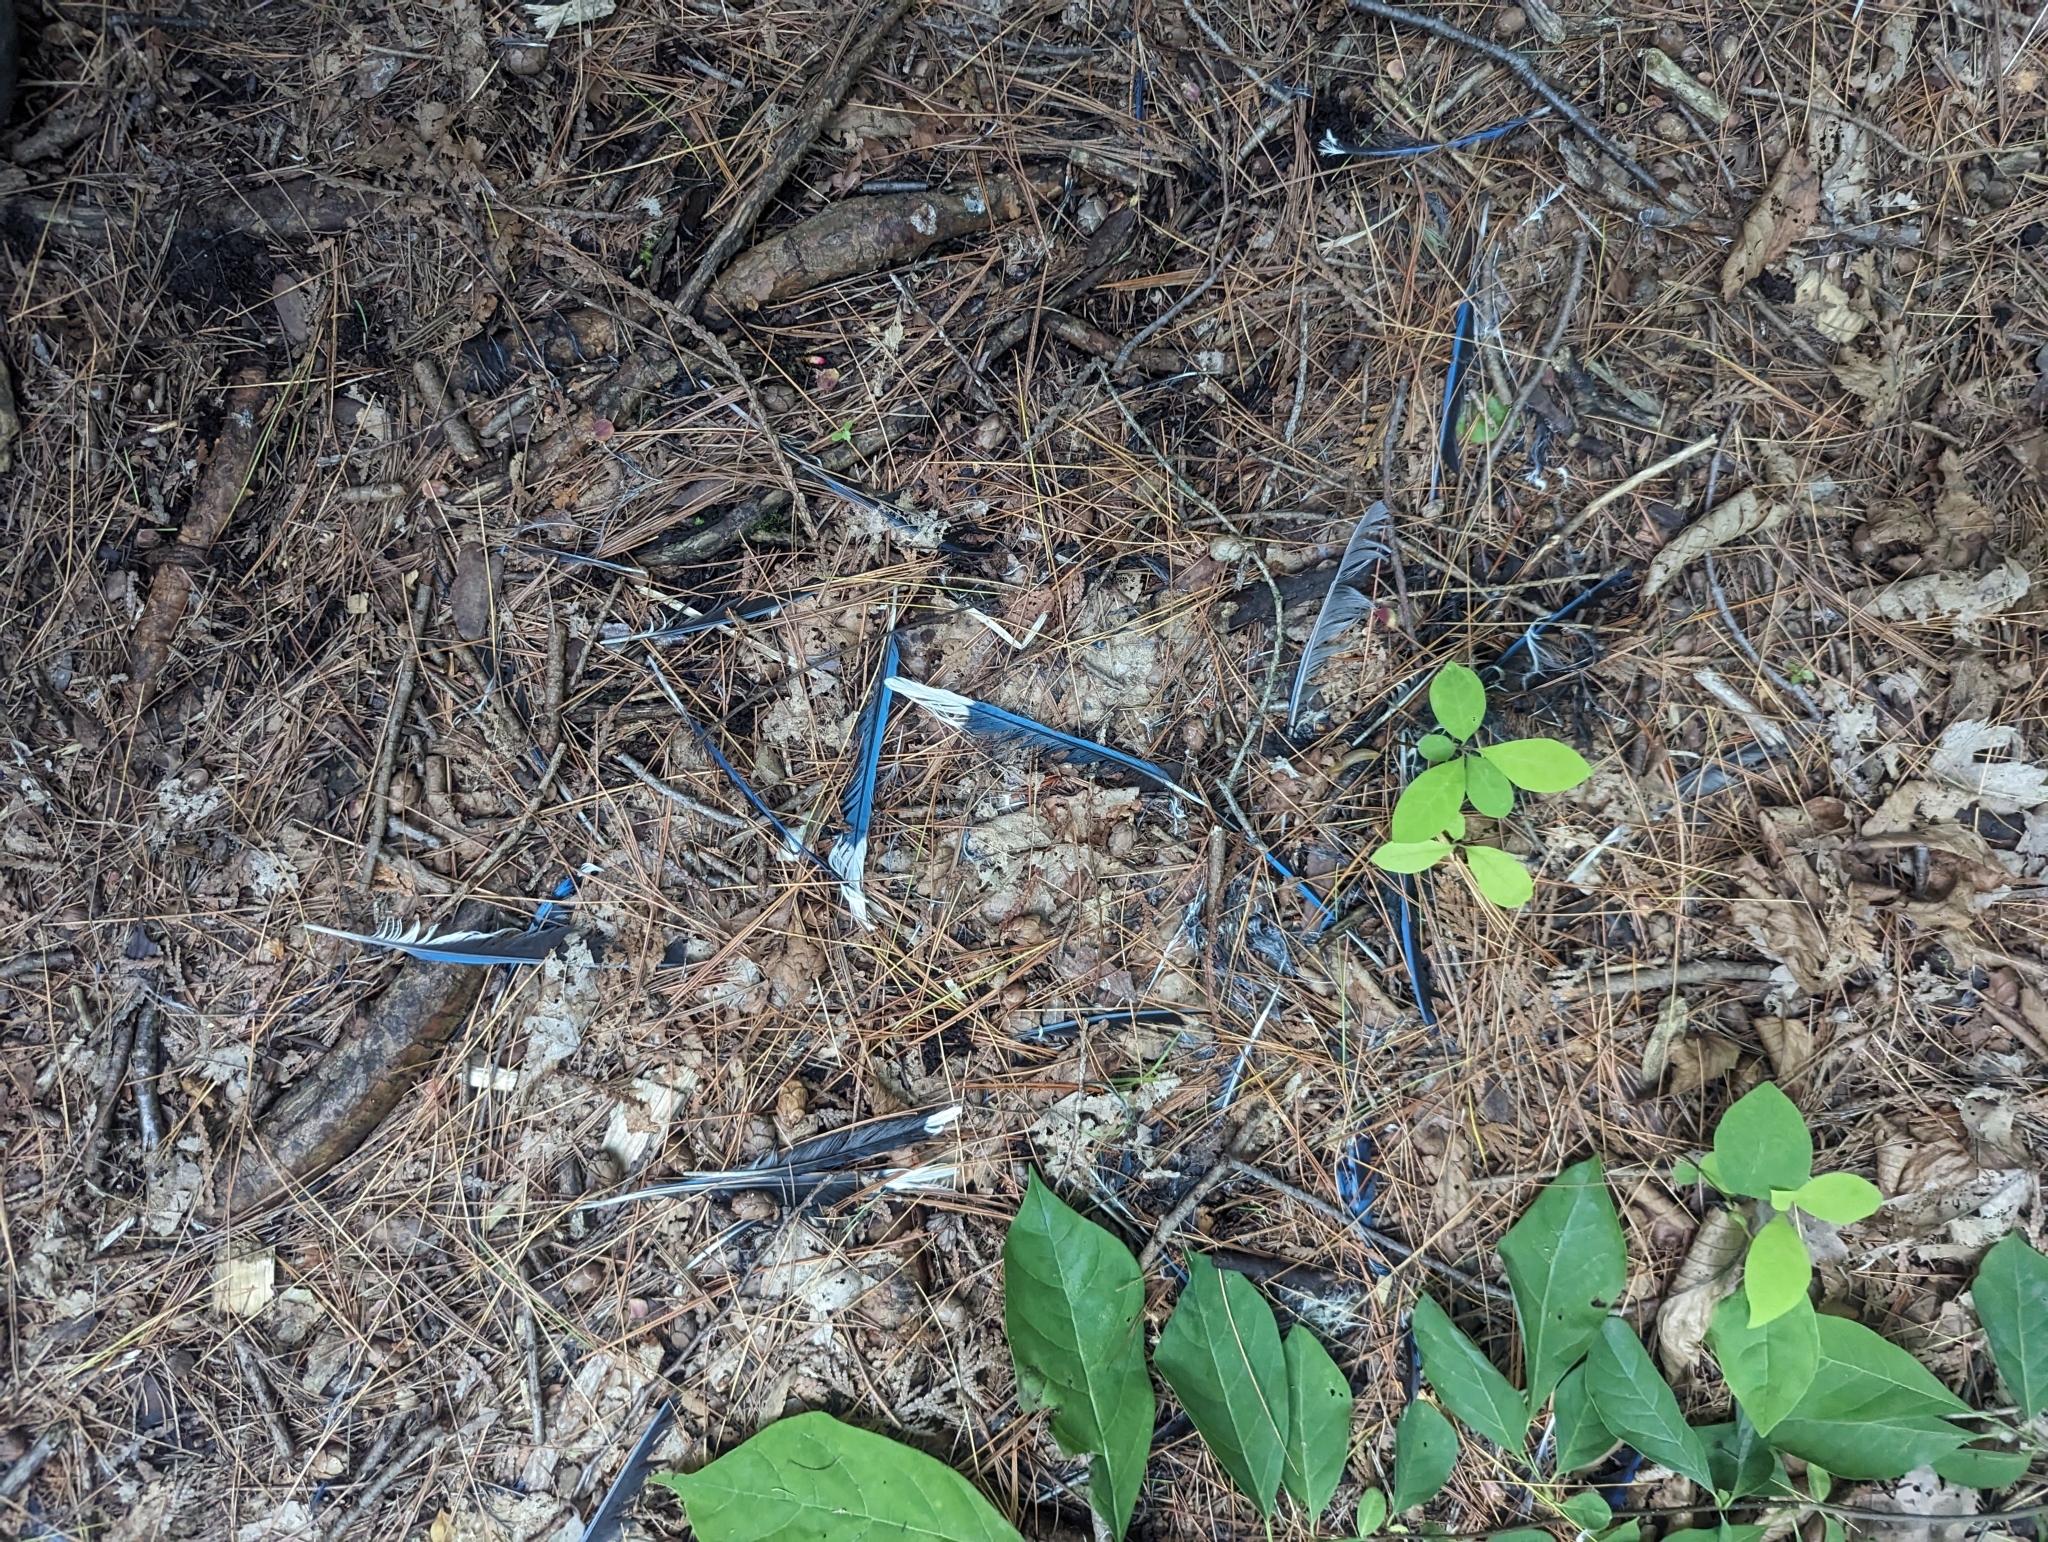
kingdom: Animalia
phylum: Chordata
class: Aves
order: Passeriformes
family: Corvidae
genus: Cyanocitta
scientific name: Cyanocitta cristata
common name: Blue jay
